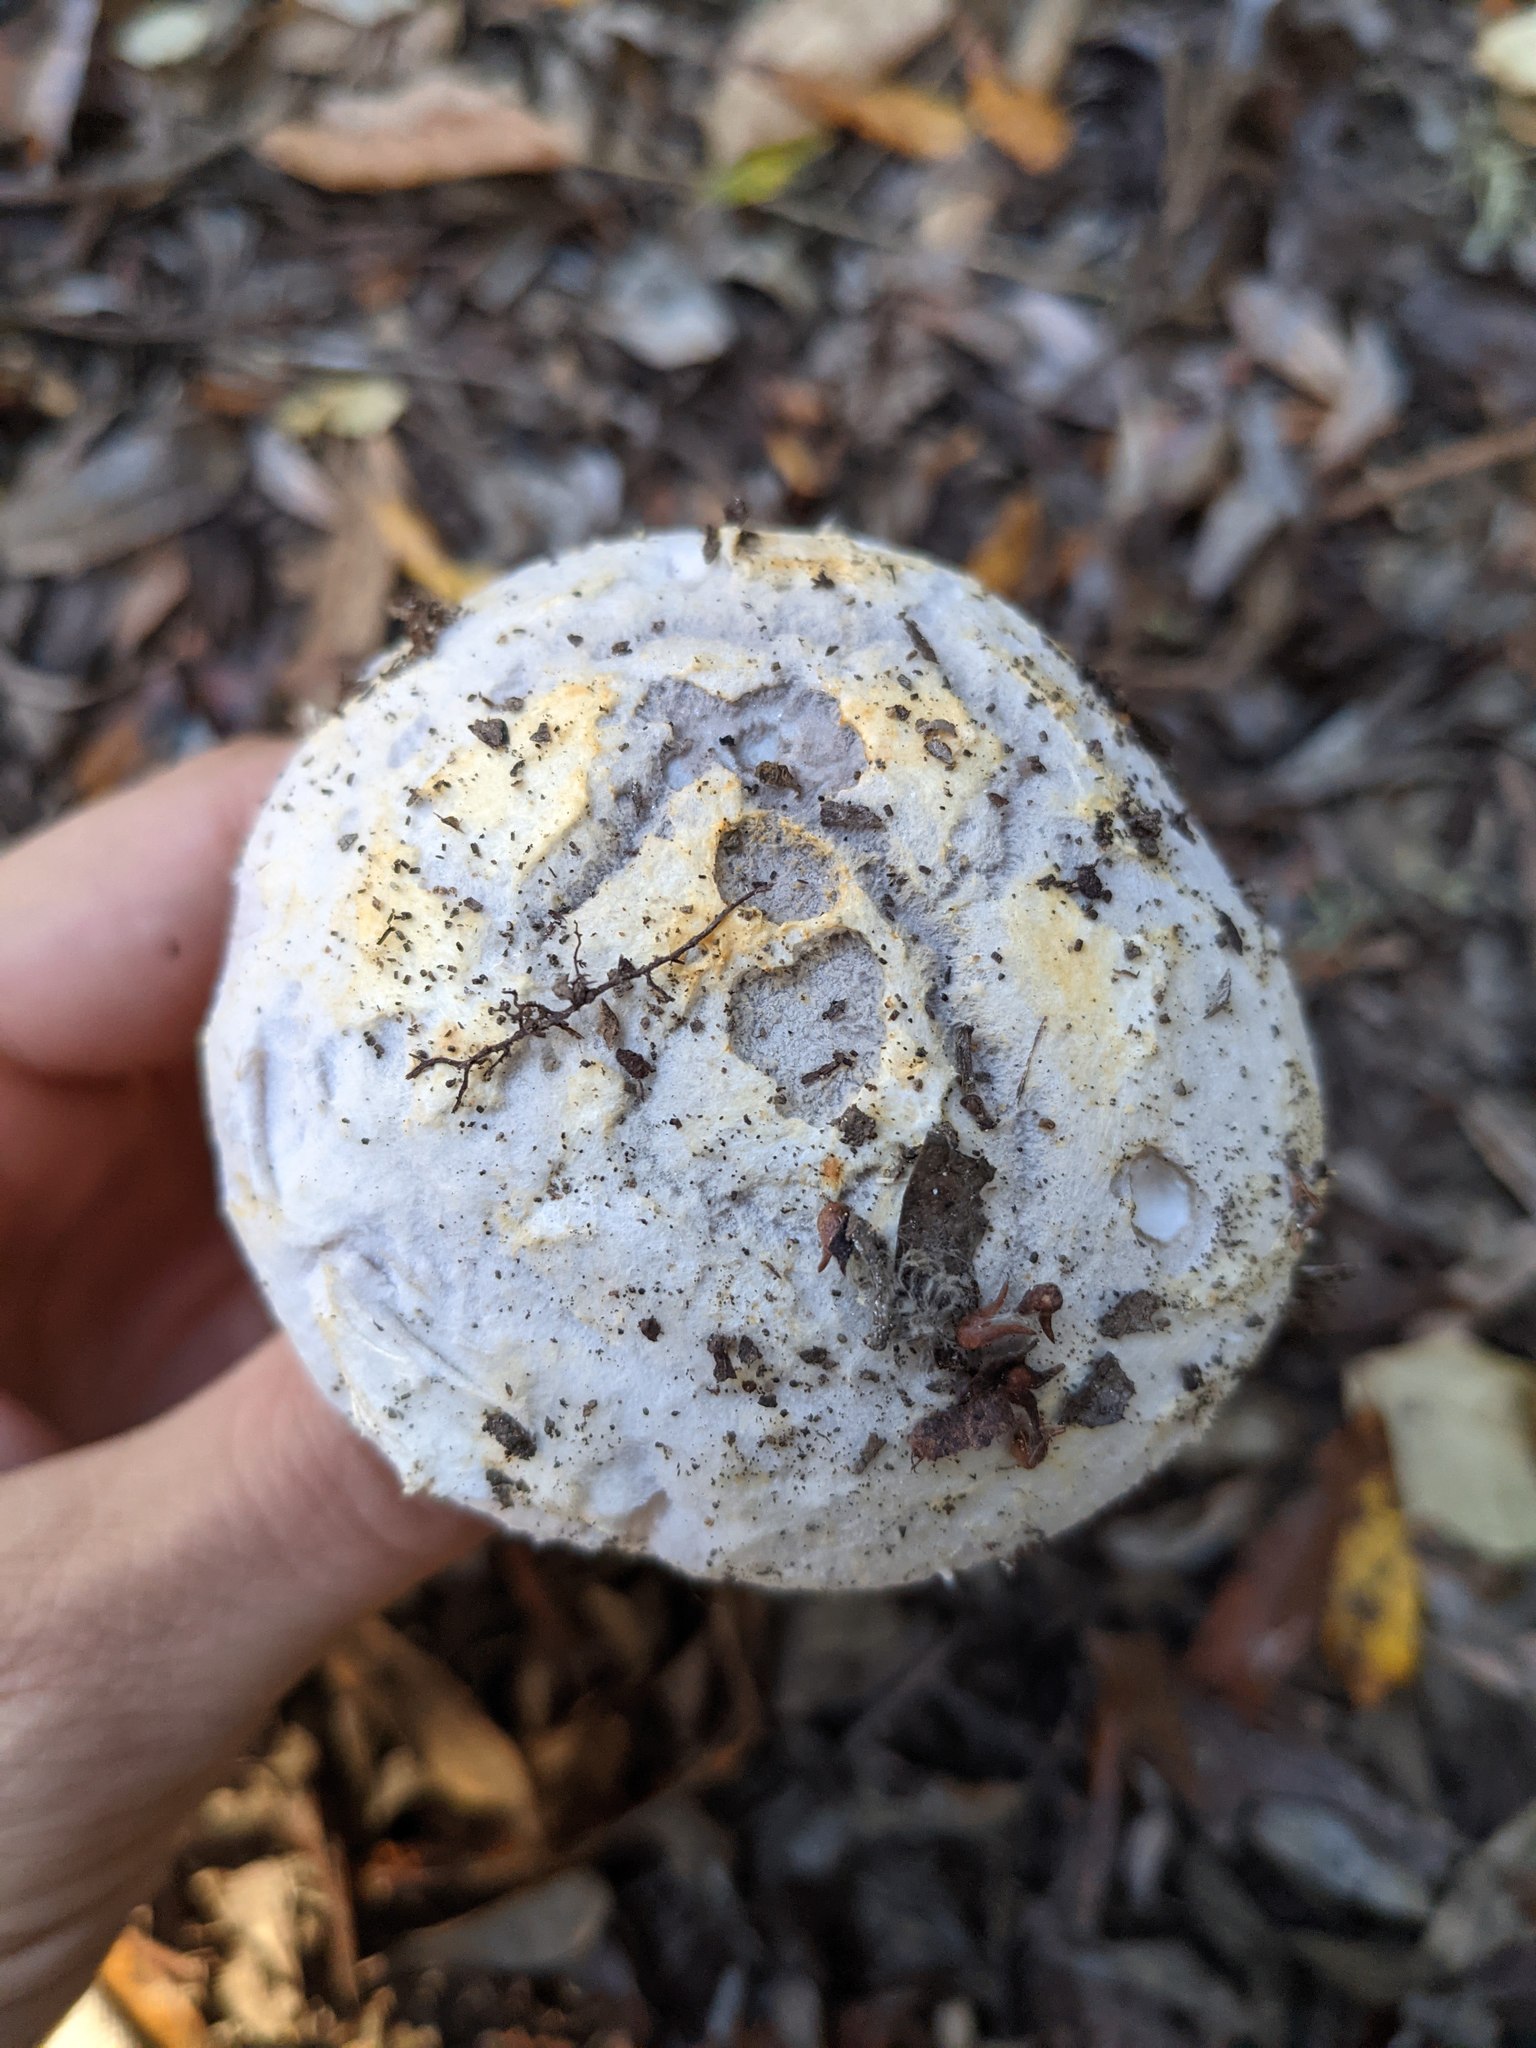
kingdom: Fungi
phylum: Basidiomycota
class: Agaricomycetes
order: Agaricales
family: Amanitaceae
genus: Amanita
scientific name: Amanita protecta
